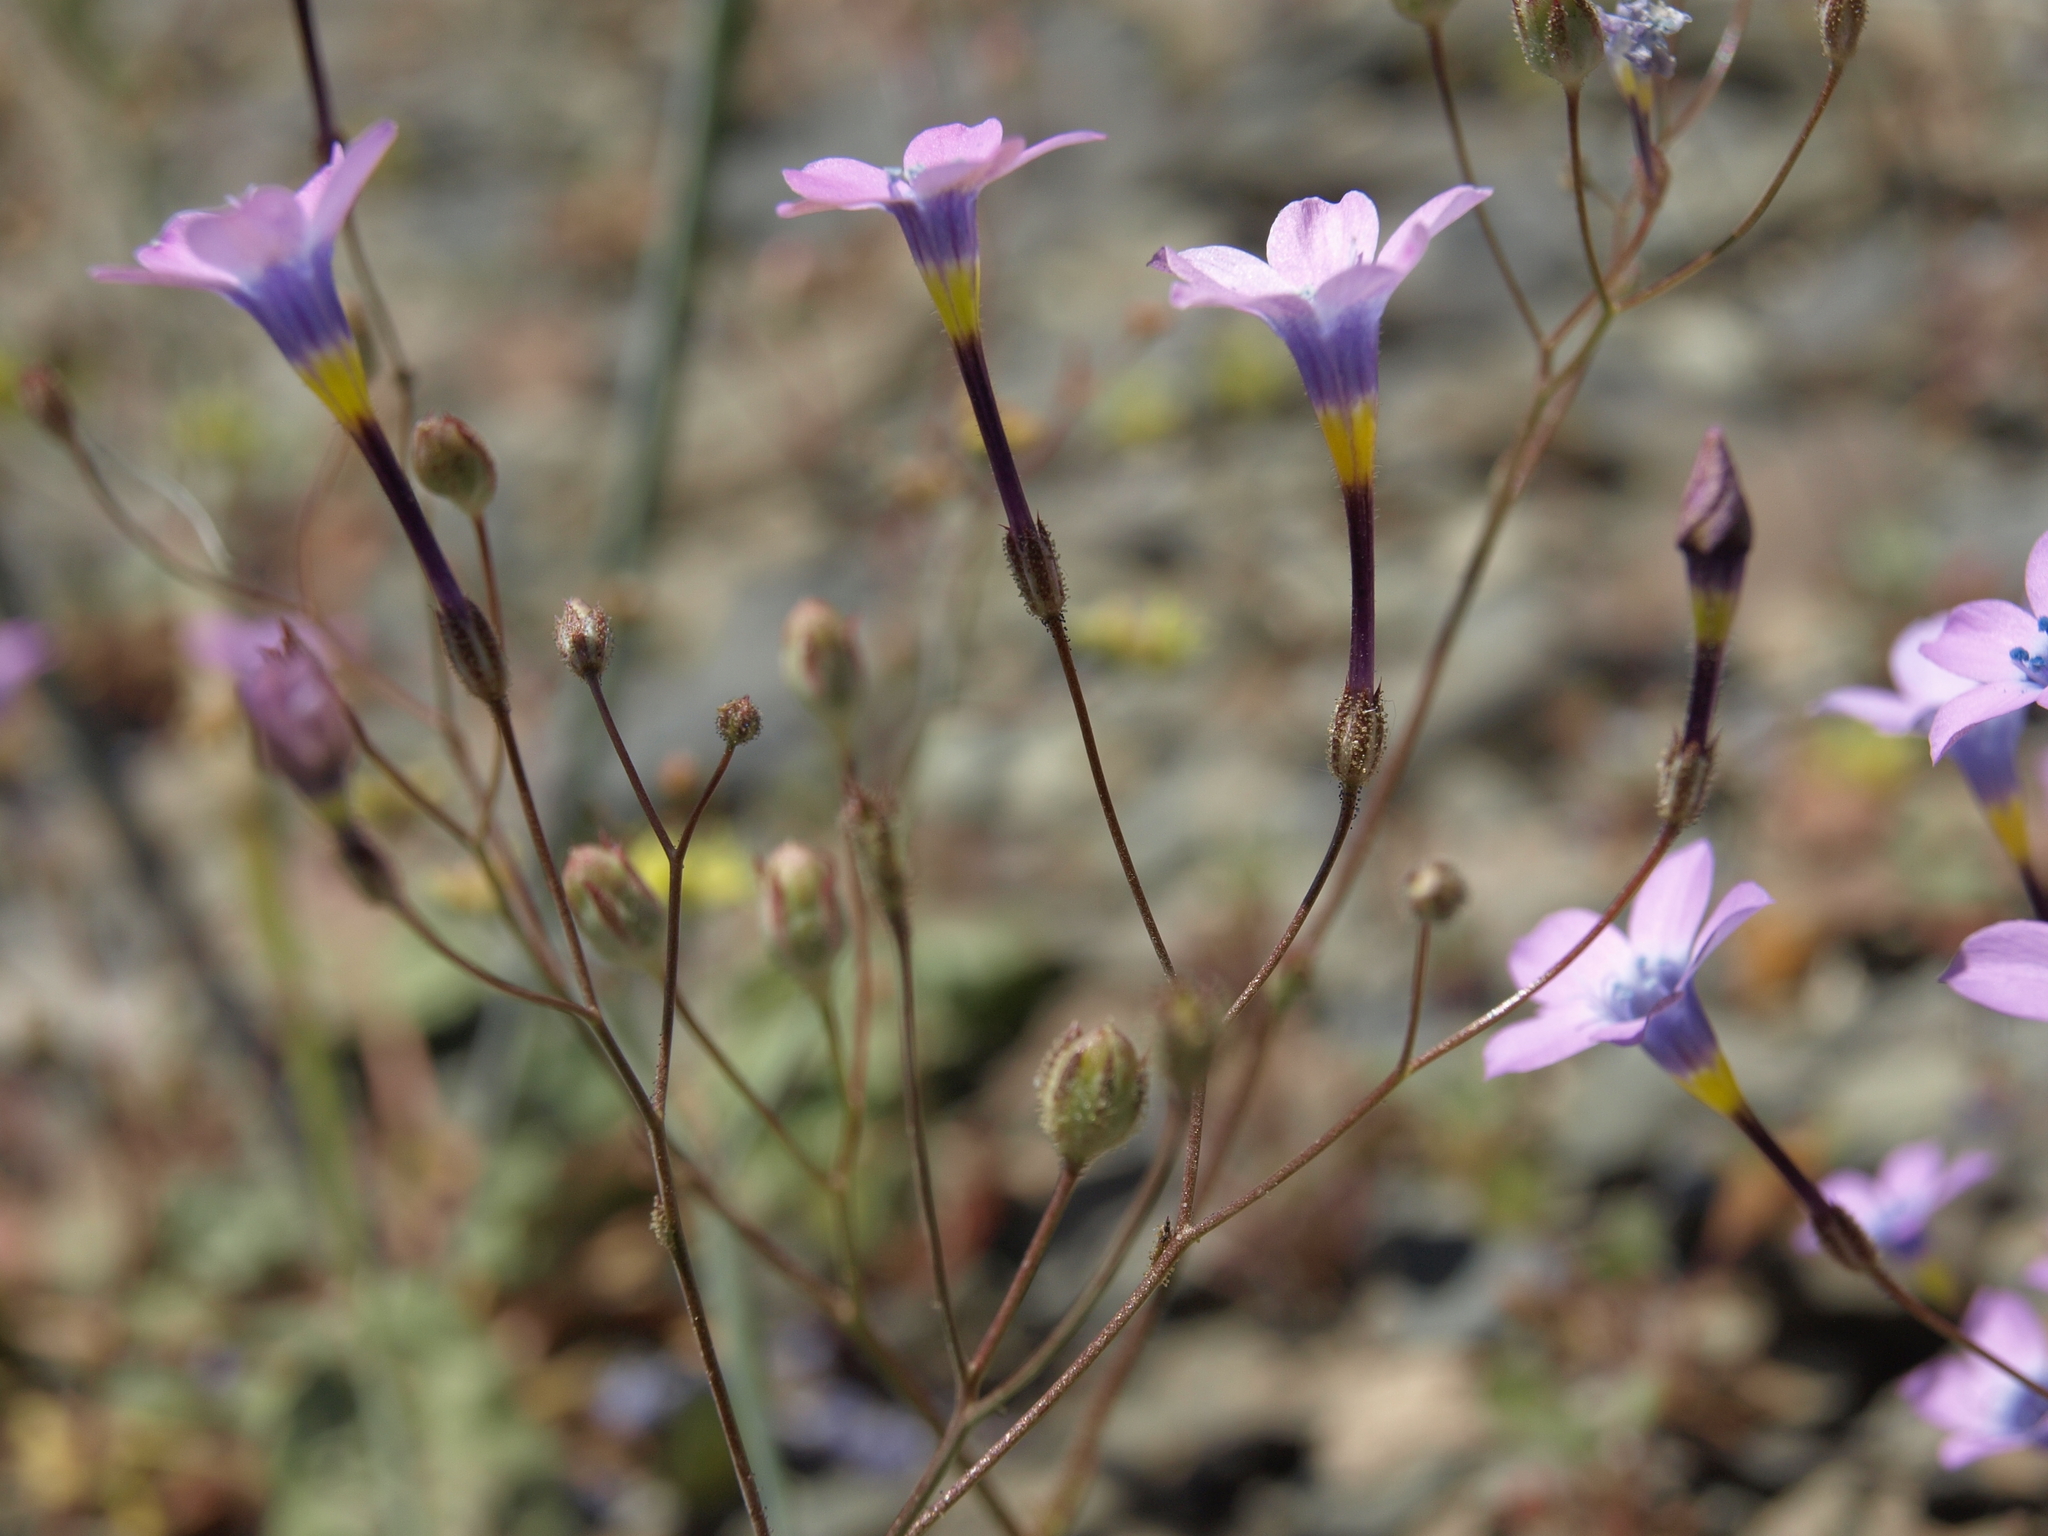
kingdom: Plantae
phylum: Tracheophyta
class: Magnoliopsida
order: Ericales
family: Polemoniaceae
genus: Gilia
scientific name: Gilia cana
